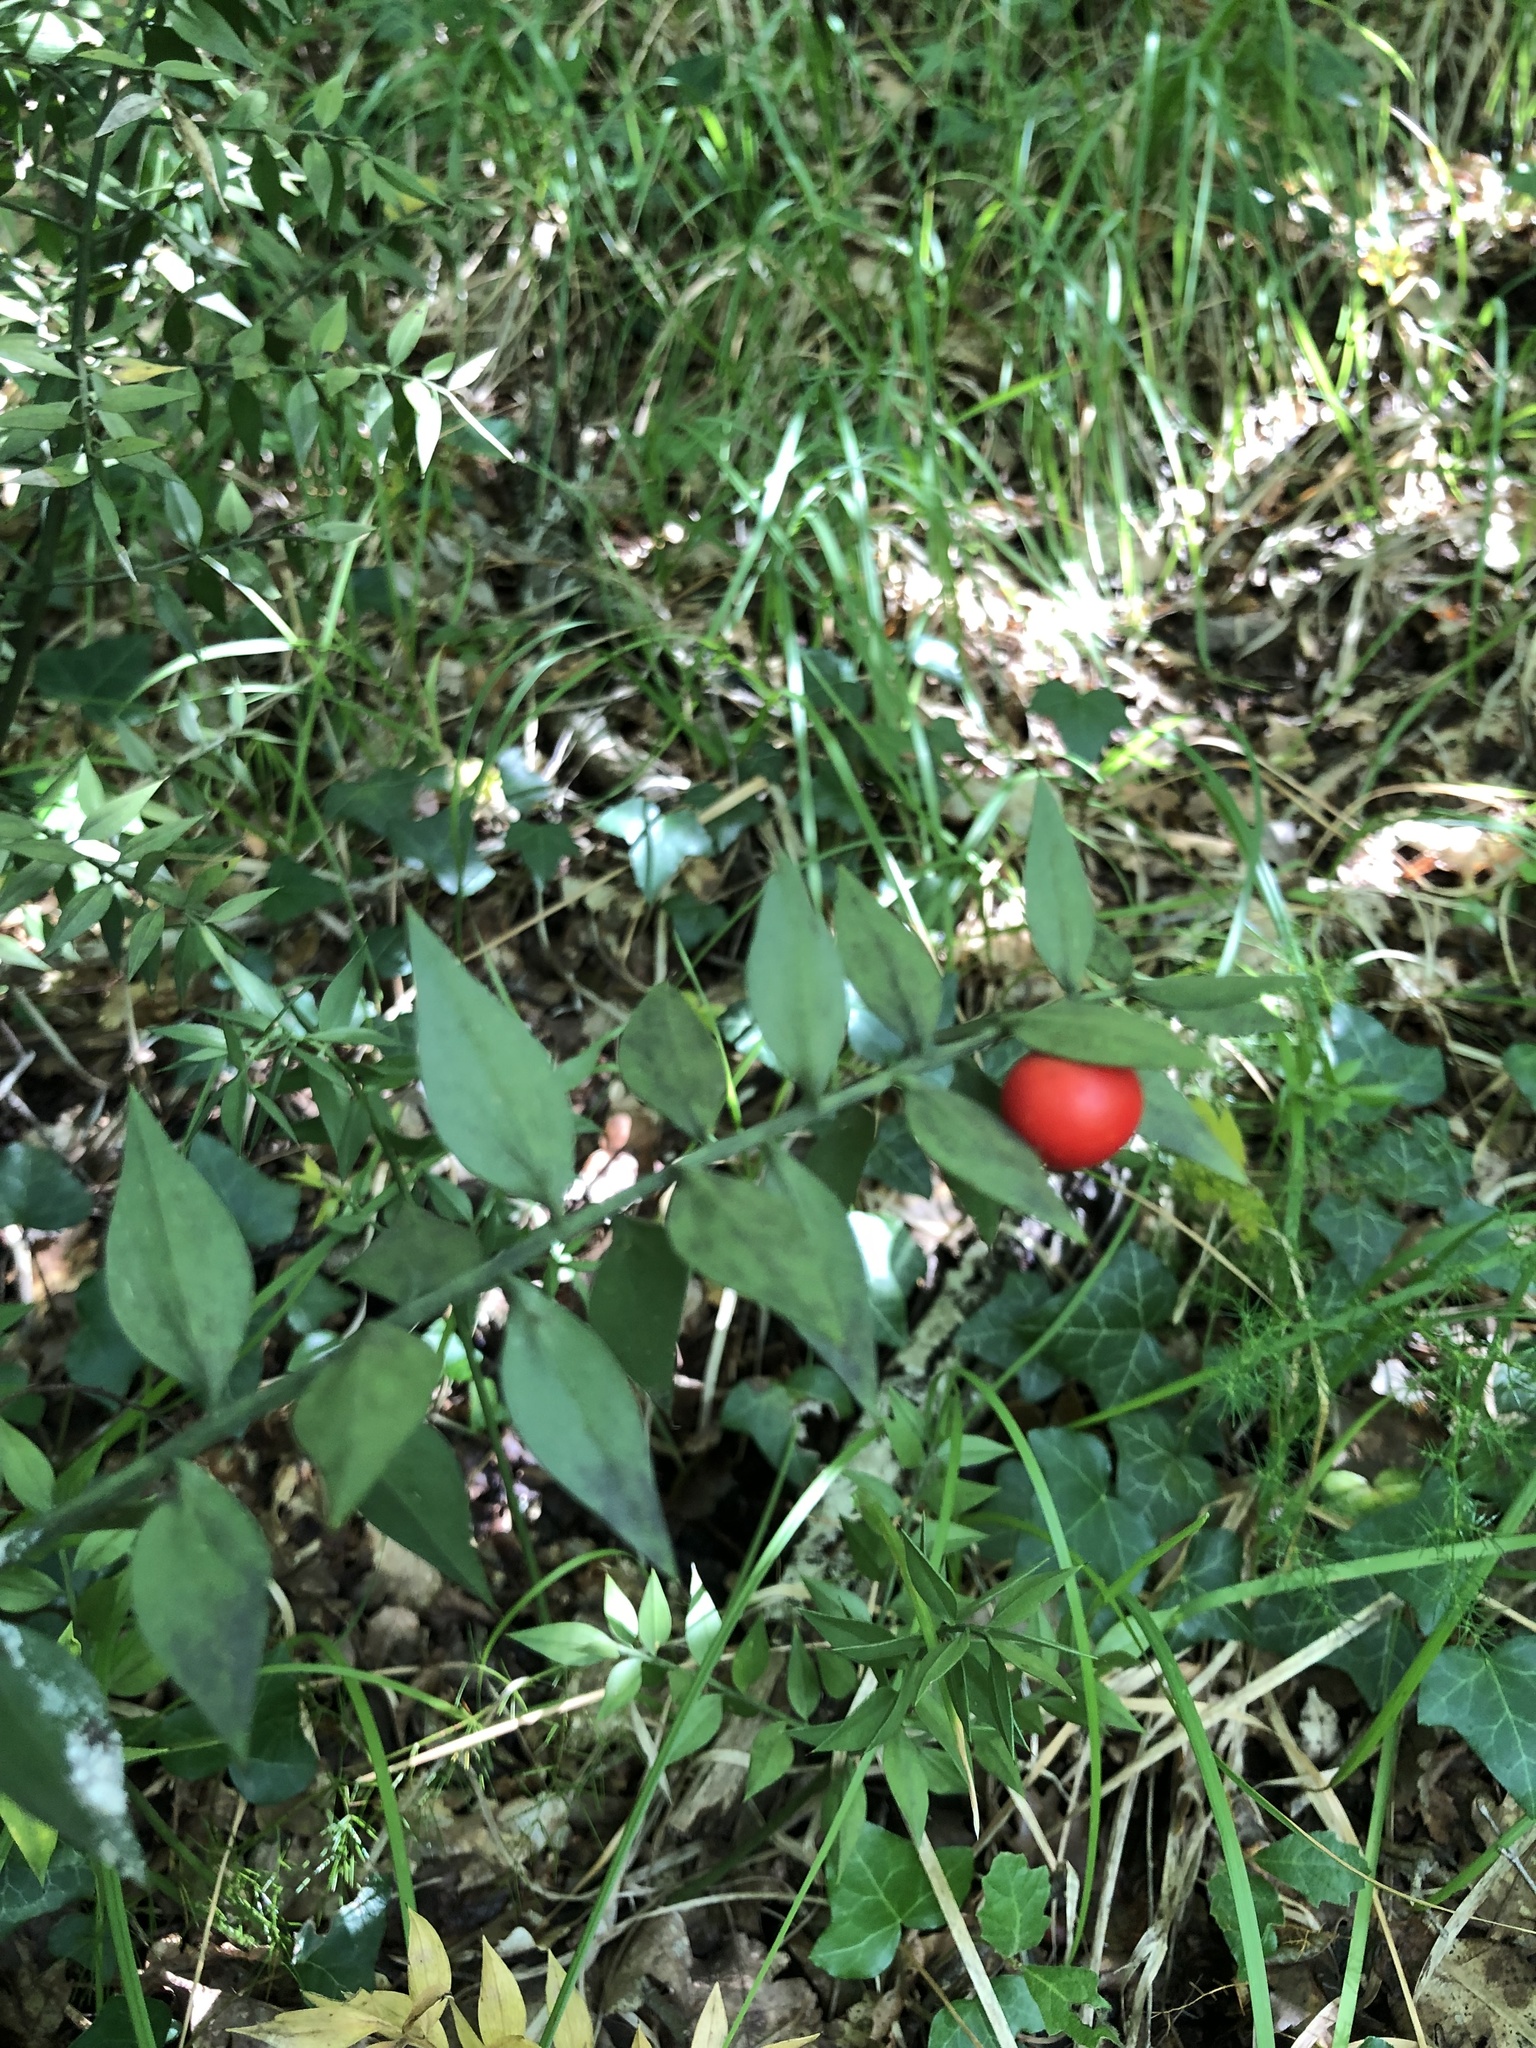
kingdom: Plantae
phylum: Tracheophyta
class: Liliopsida
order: Asparagales
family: Asparagaceae
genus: Ruscus
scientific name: Ruscus aculeatus
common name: Butcher's-broom
